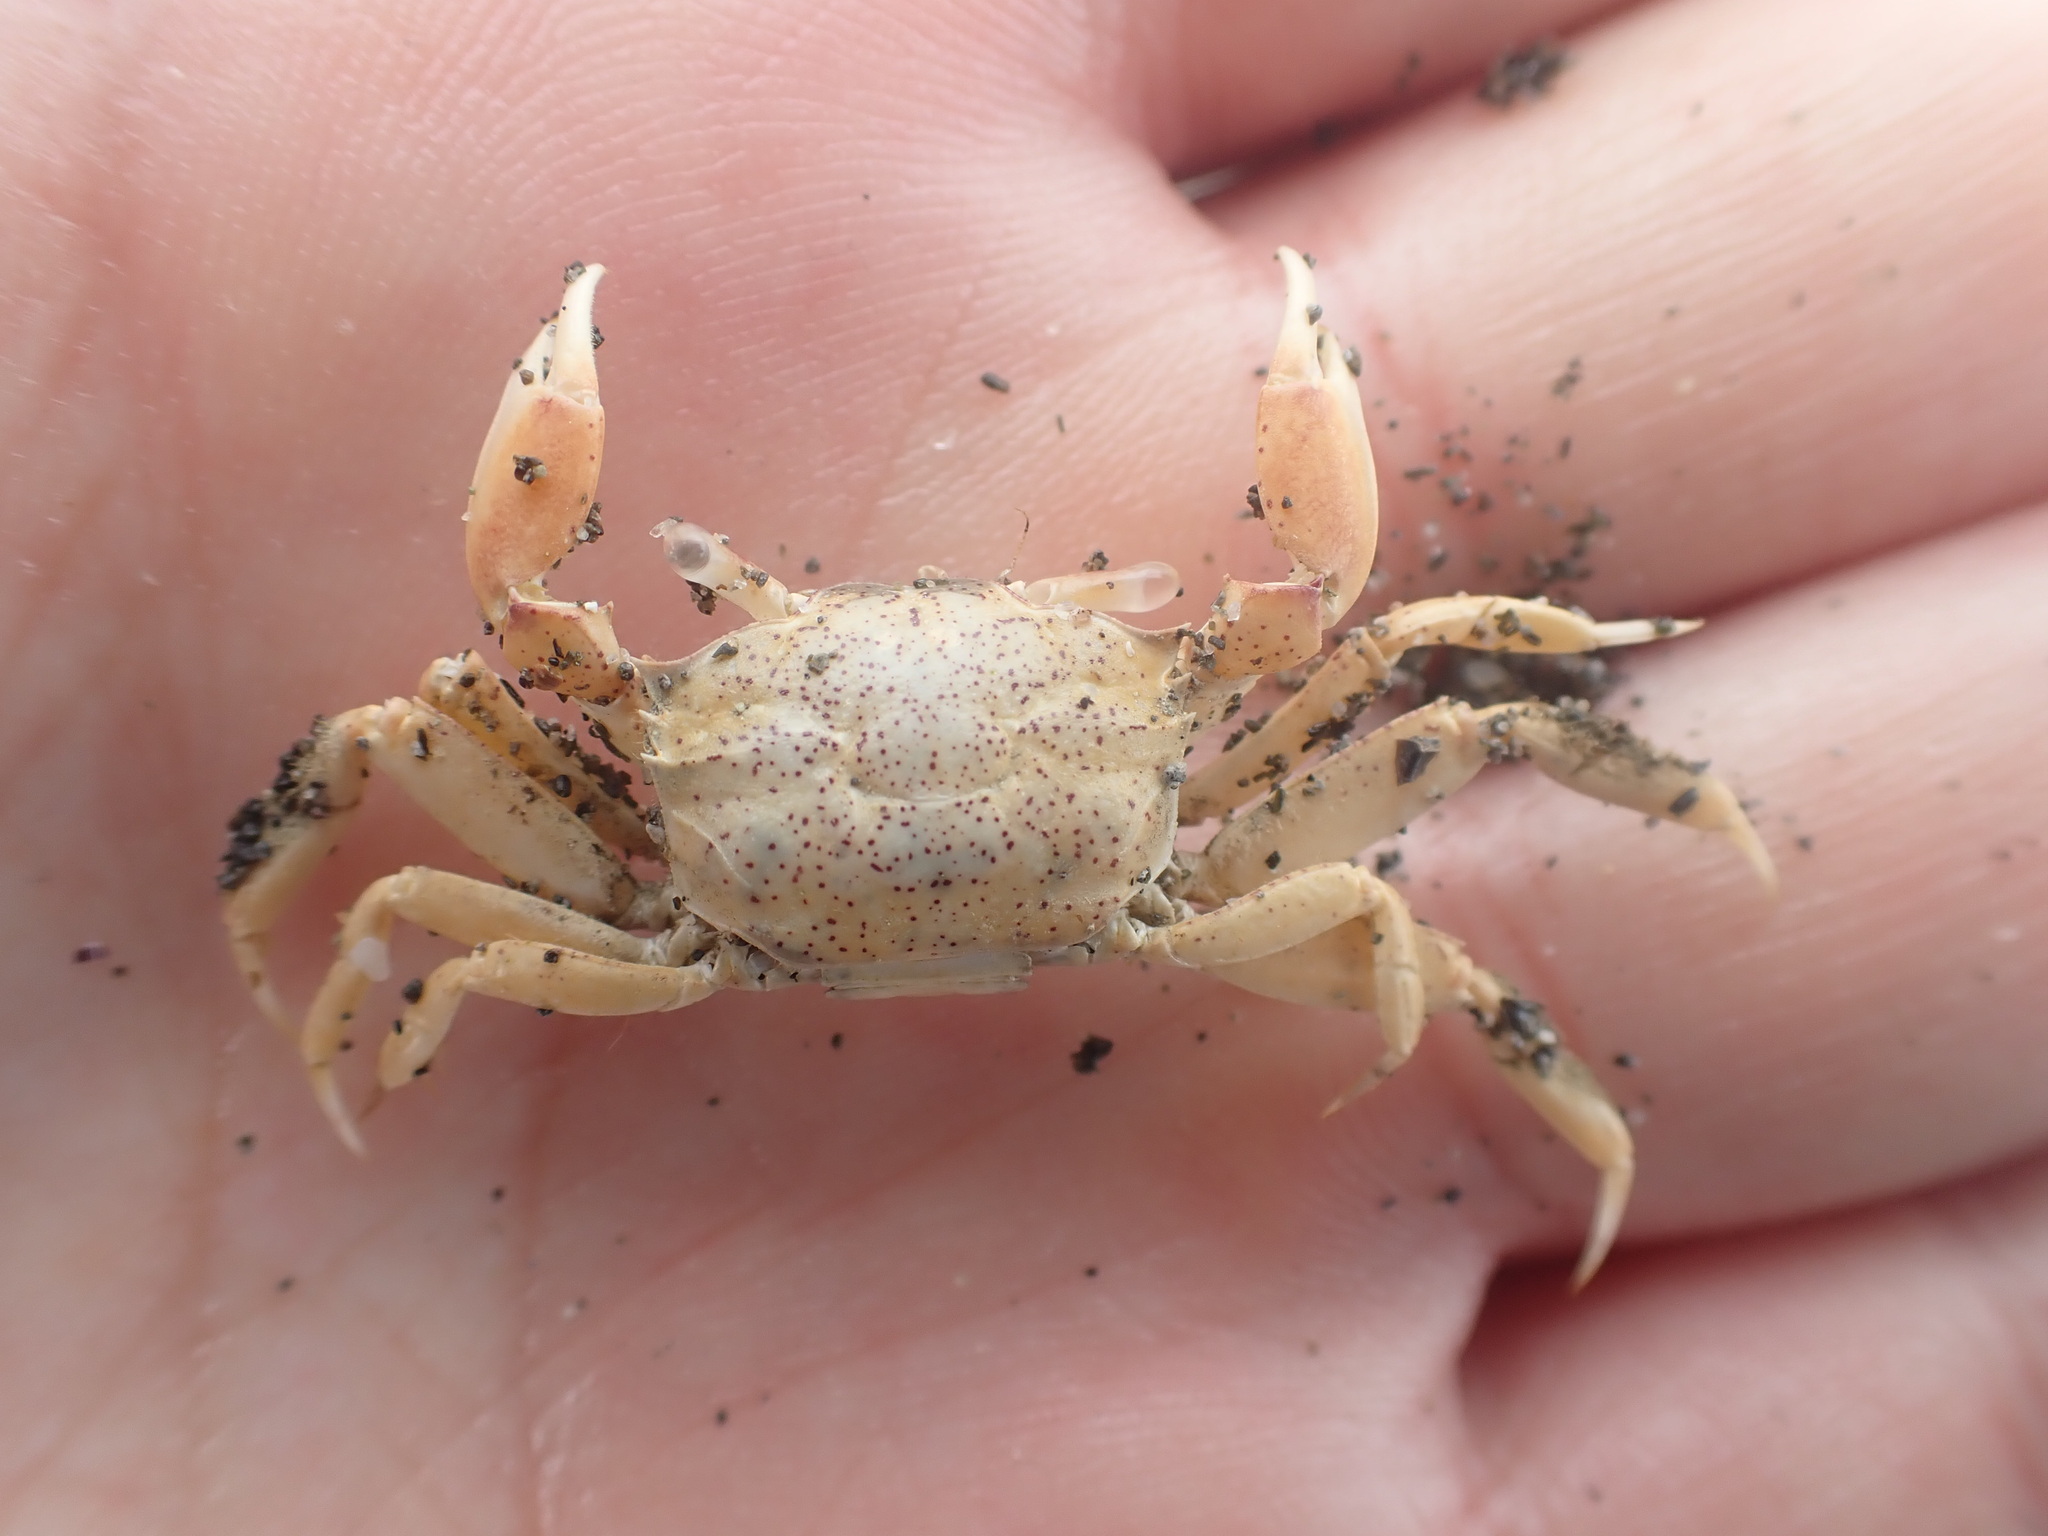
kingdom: Animalia
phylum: Arthropoda
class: Malacostraca
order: Decapoda
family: Macrophthalmidae
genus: Hemiplax
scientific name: Hemiplax hirtipes
